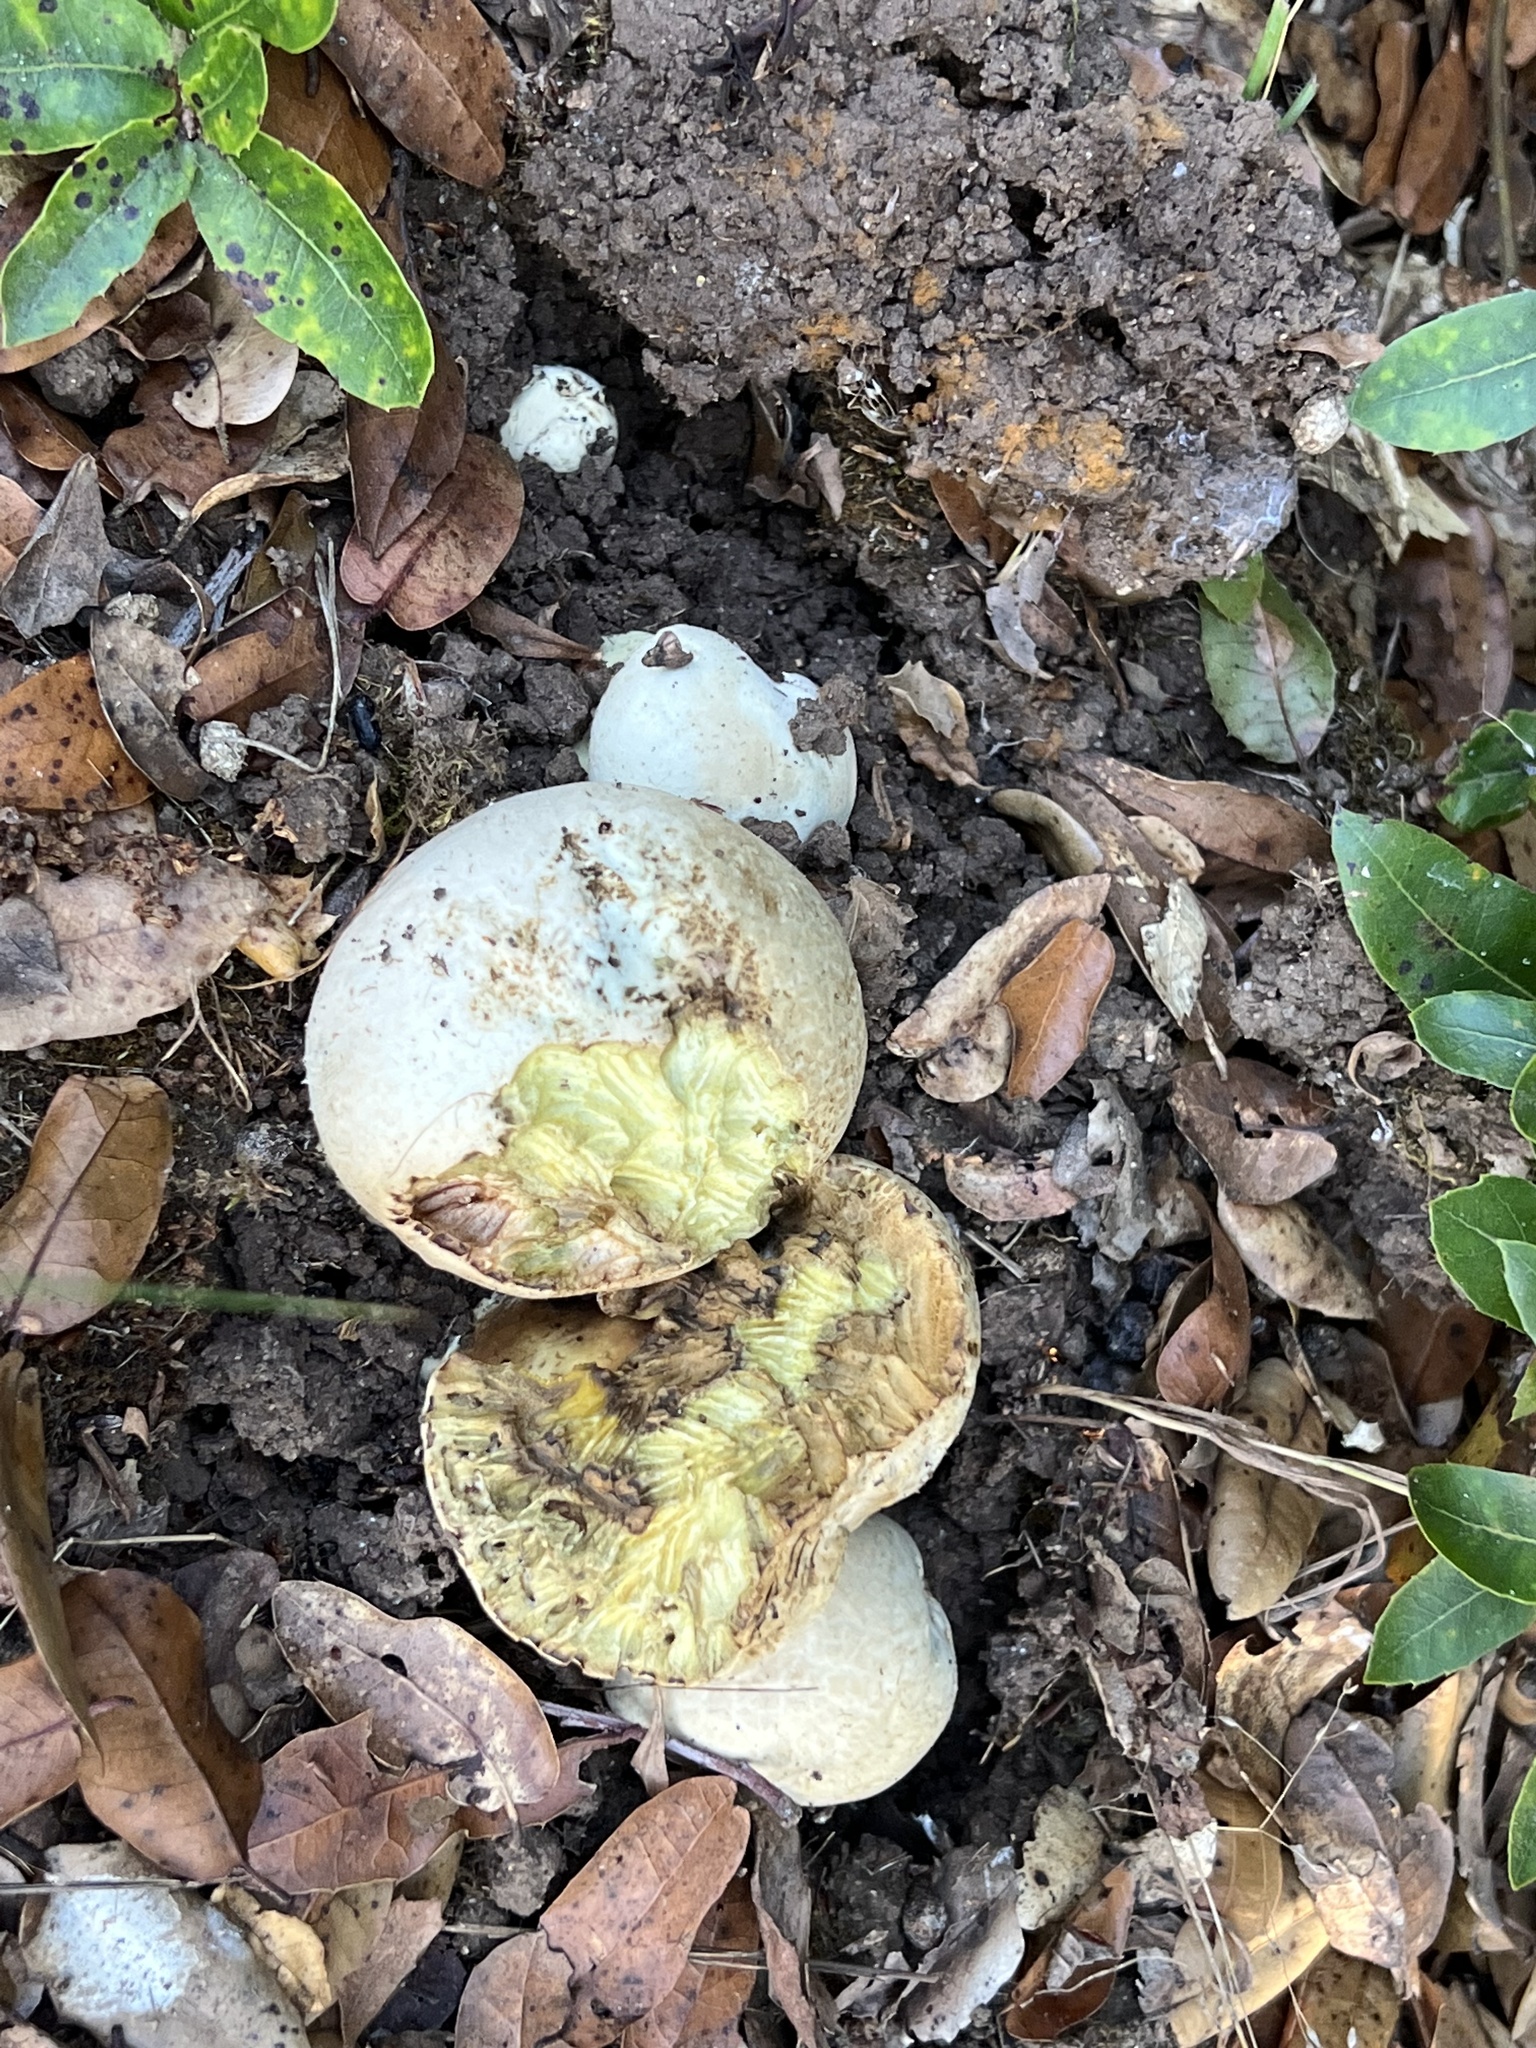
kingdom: Fungi
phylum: Basidiomycota
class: Agaricomycetes
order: Boletales
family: Boletaceae
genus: Caloboletus
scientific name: Caloboletus marshii
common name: Ben's bitter bolete
